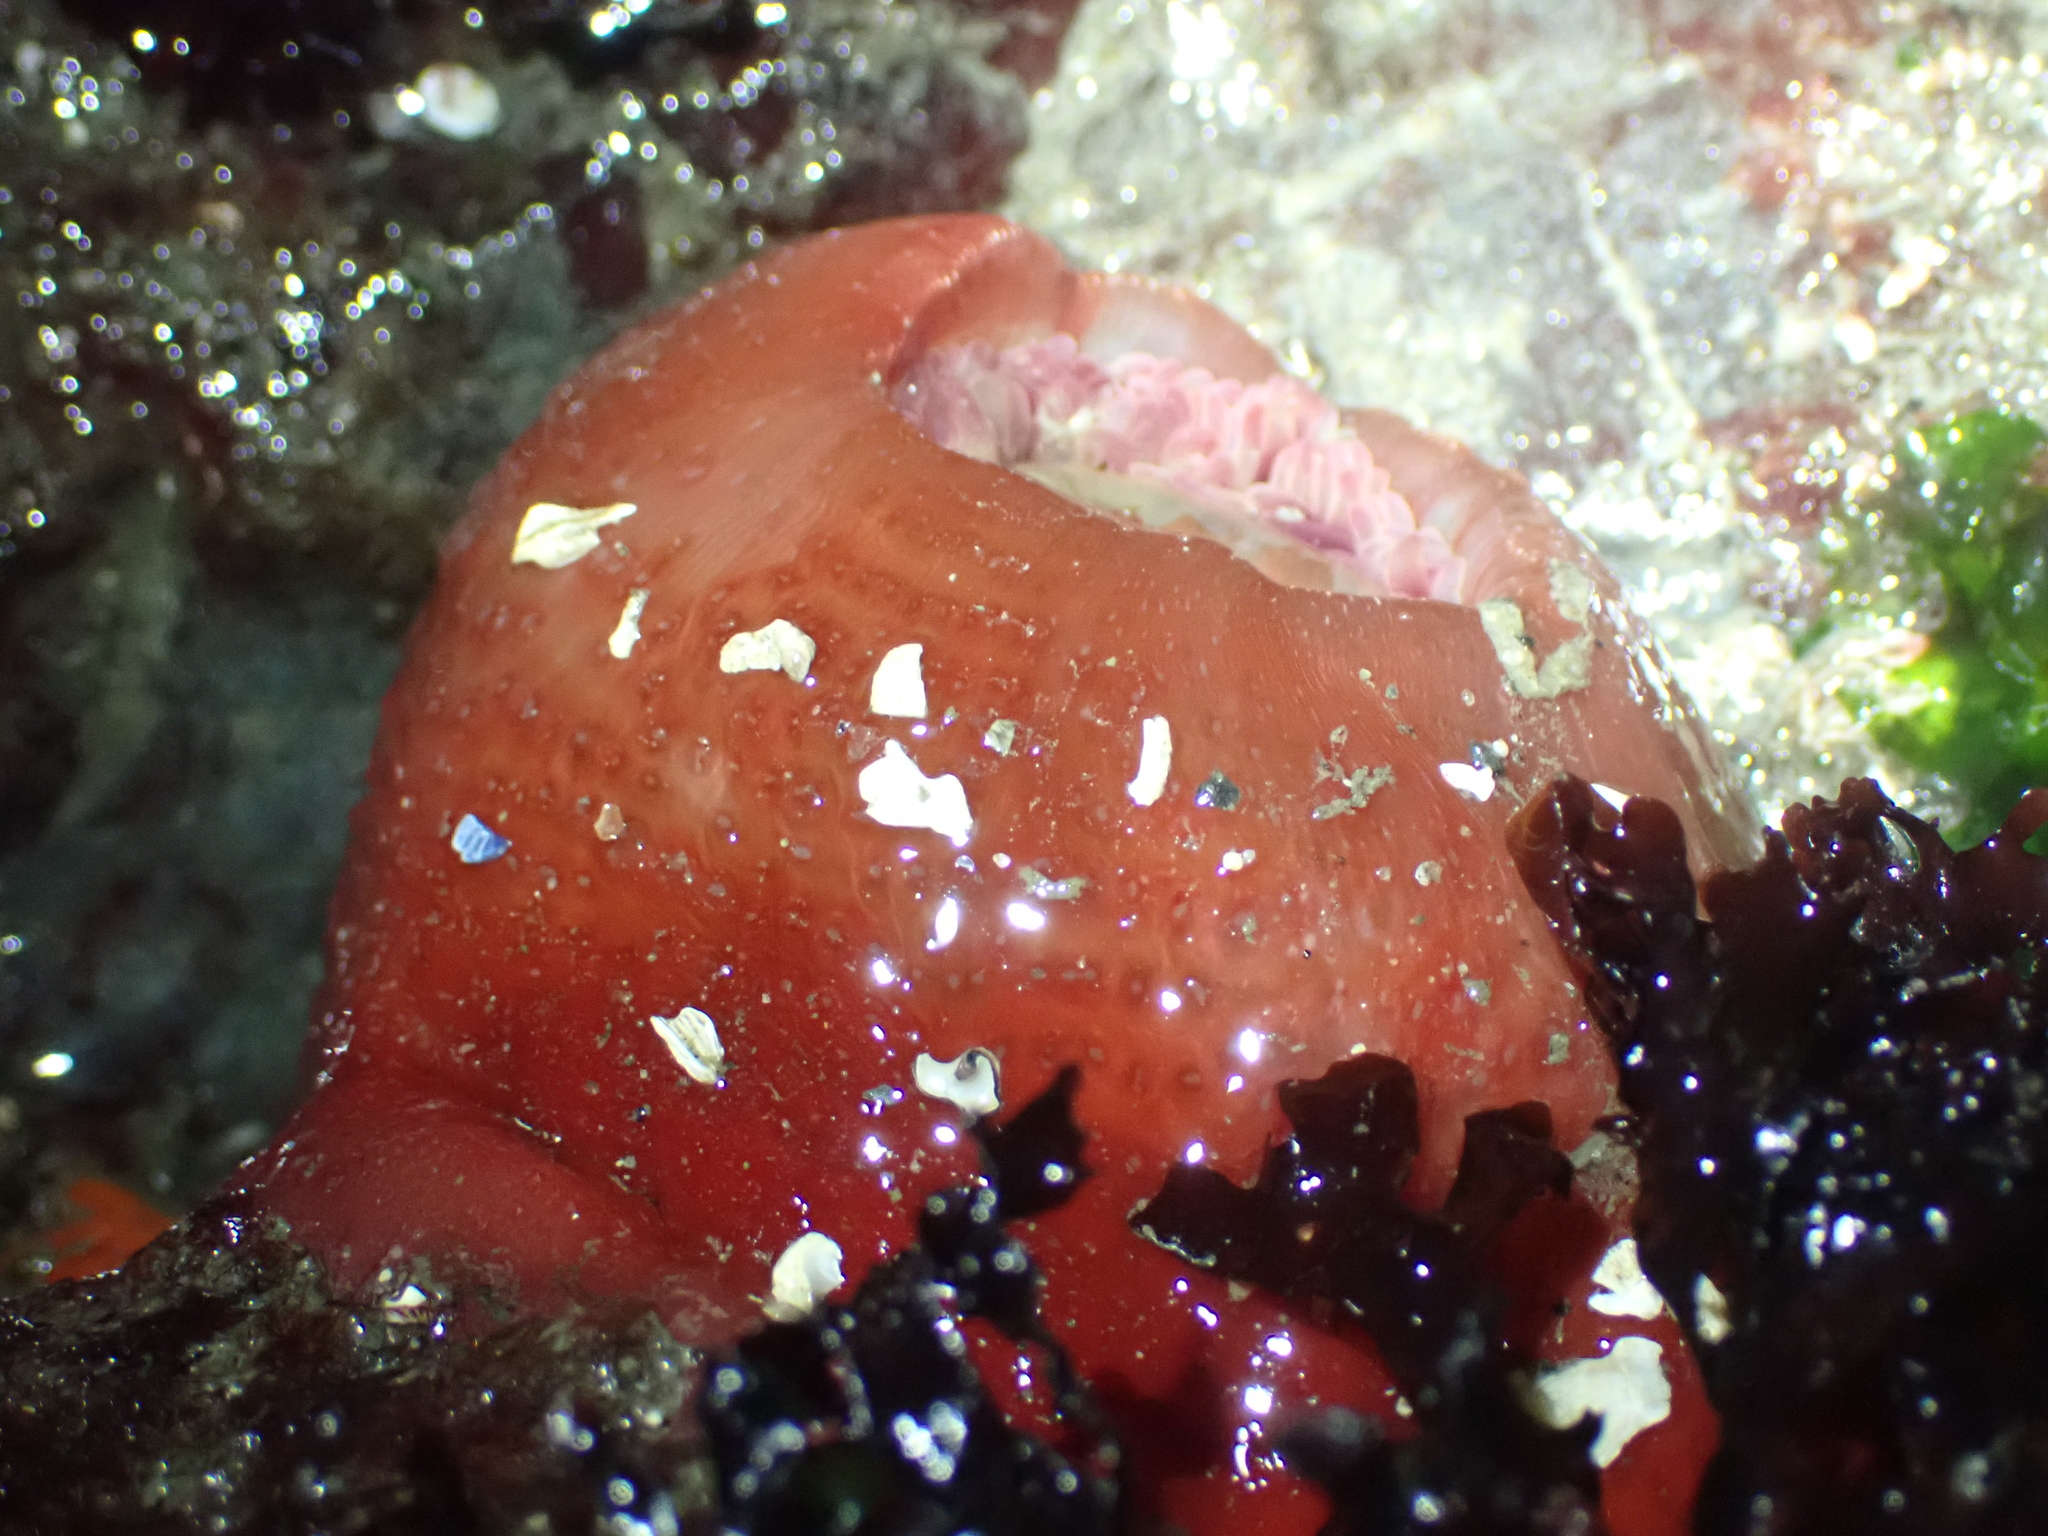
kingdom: Animalia
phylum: Cnidaria
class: Anthozoa
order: Actiniaria
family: Actiniidae
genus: Urticina
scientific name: Urticina grebelnyi
